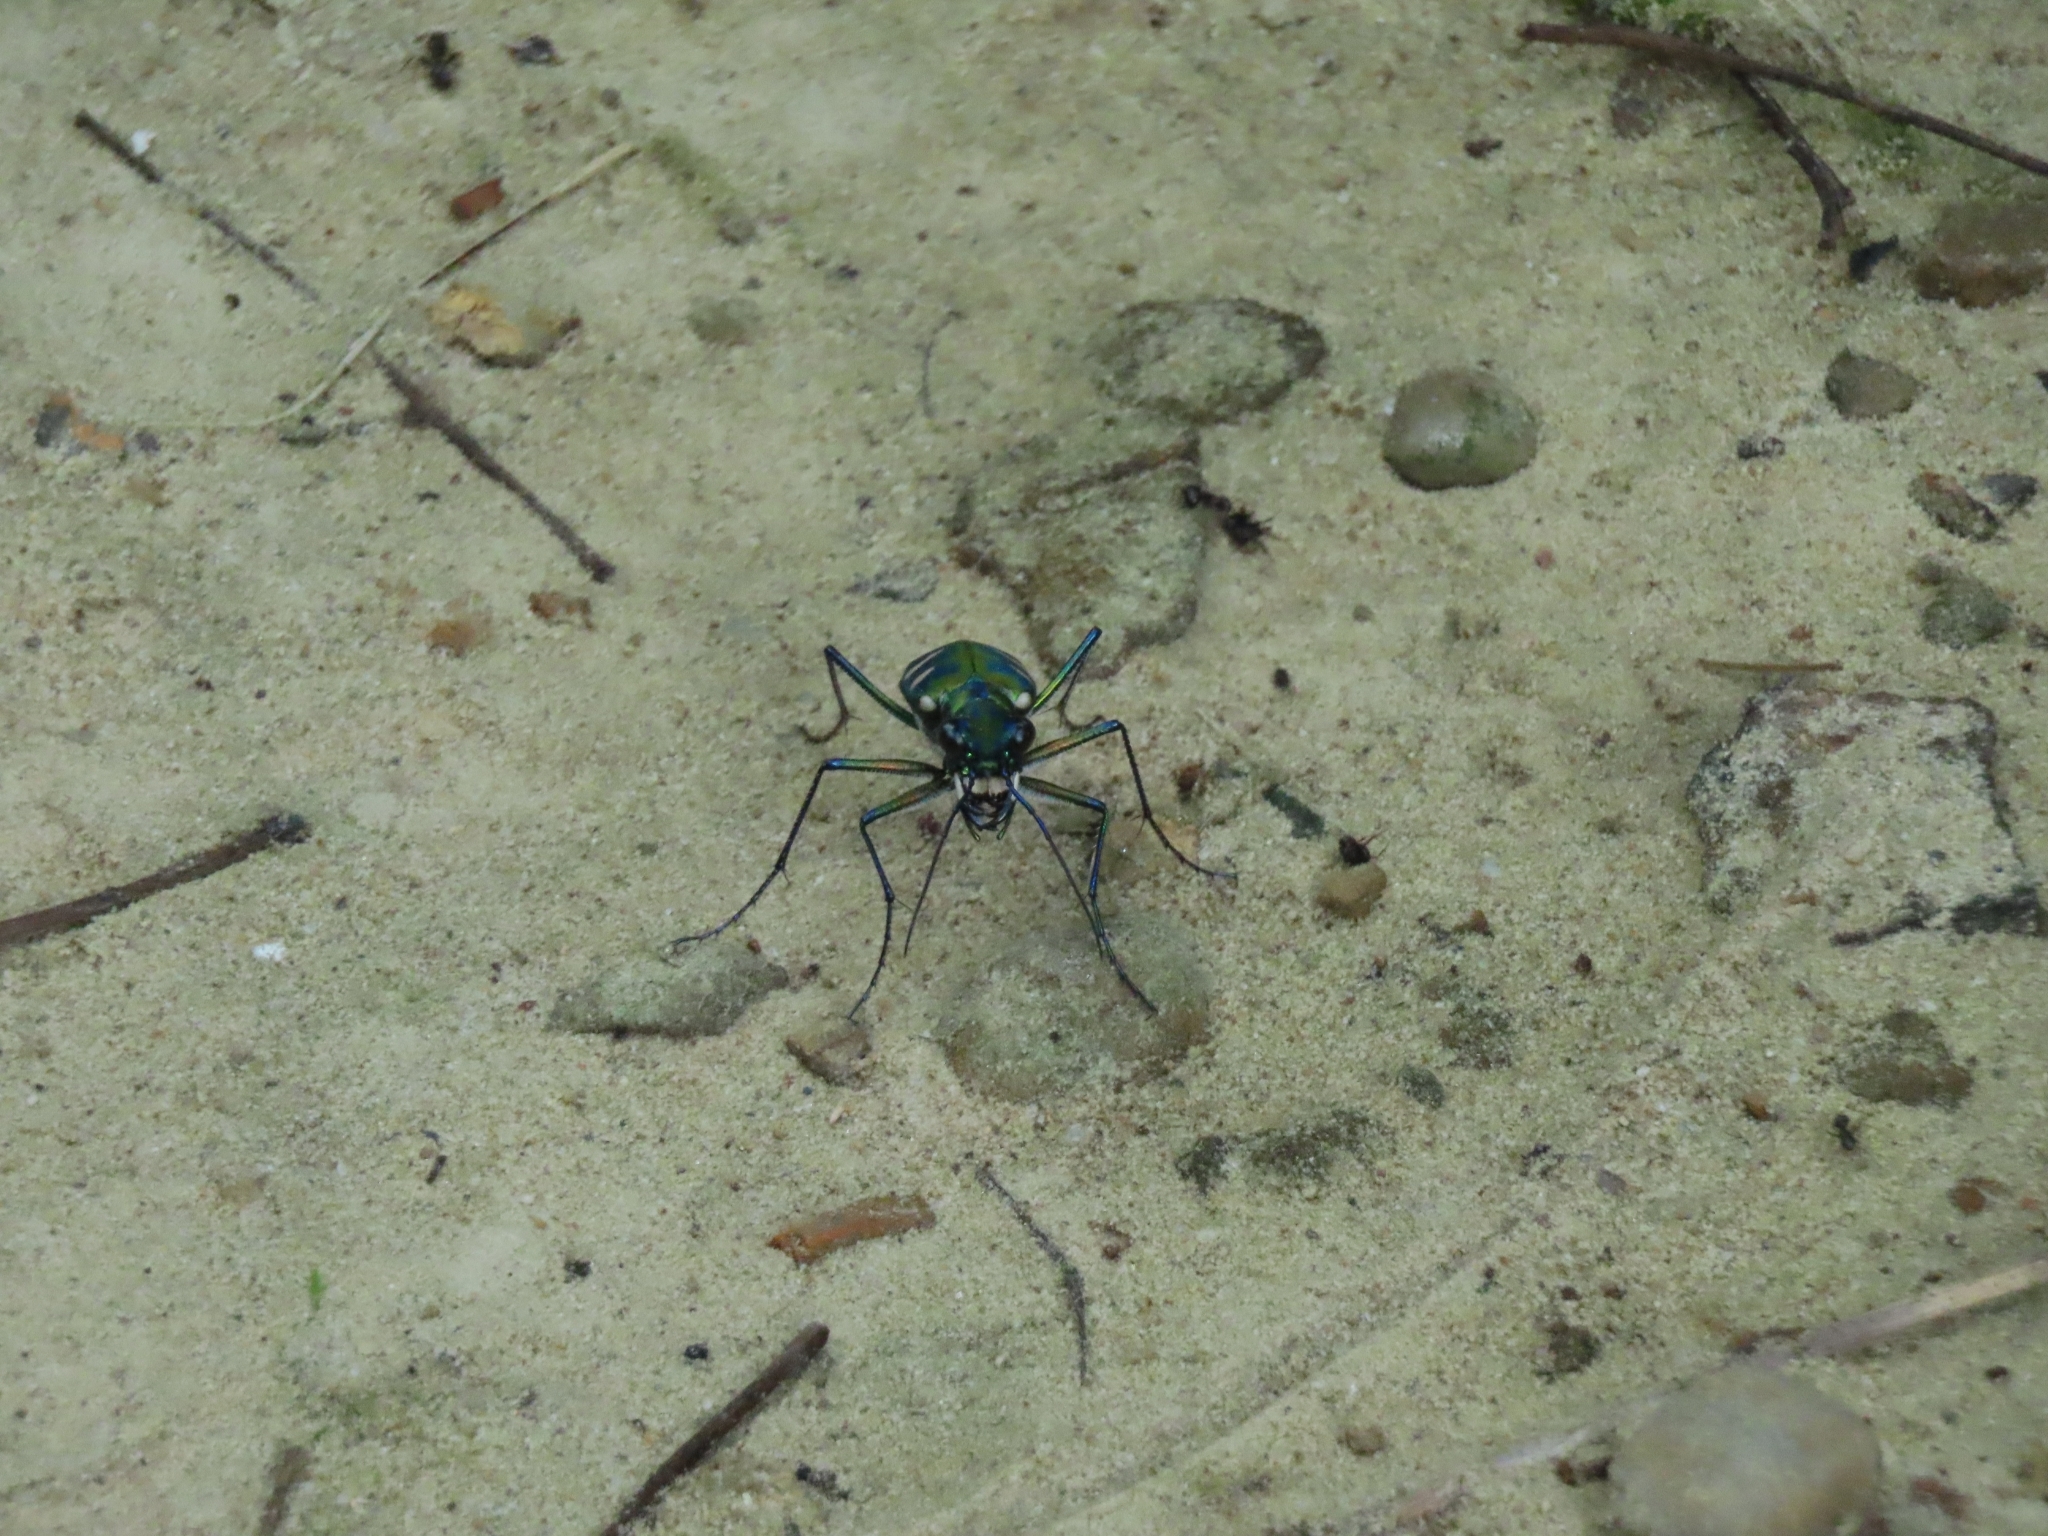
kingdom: Animalia
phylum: Arthropoda
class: Insecta
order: Coleoptera
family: Carabidae
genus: Cicindela
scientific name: Cicindela batesi
